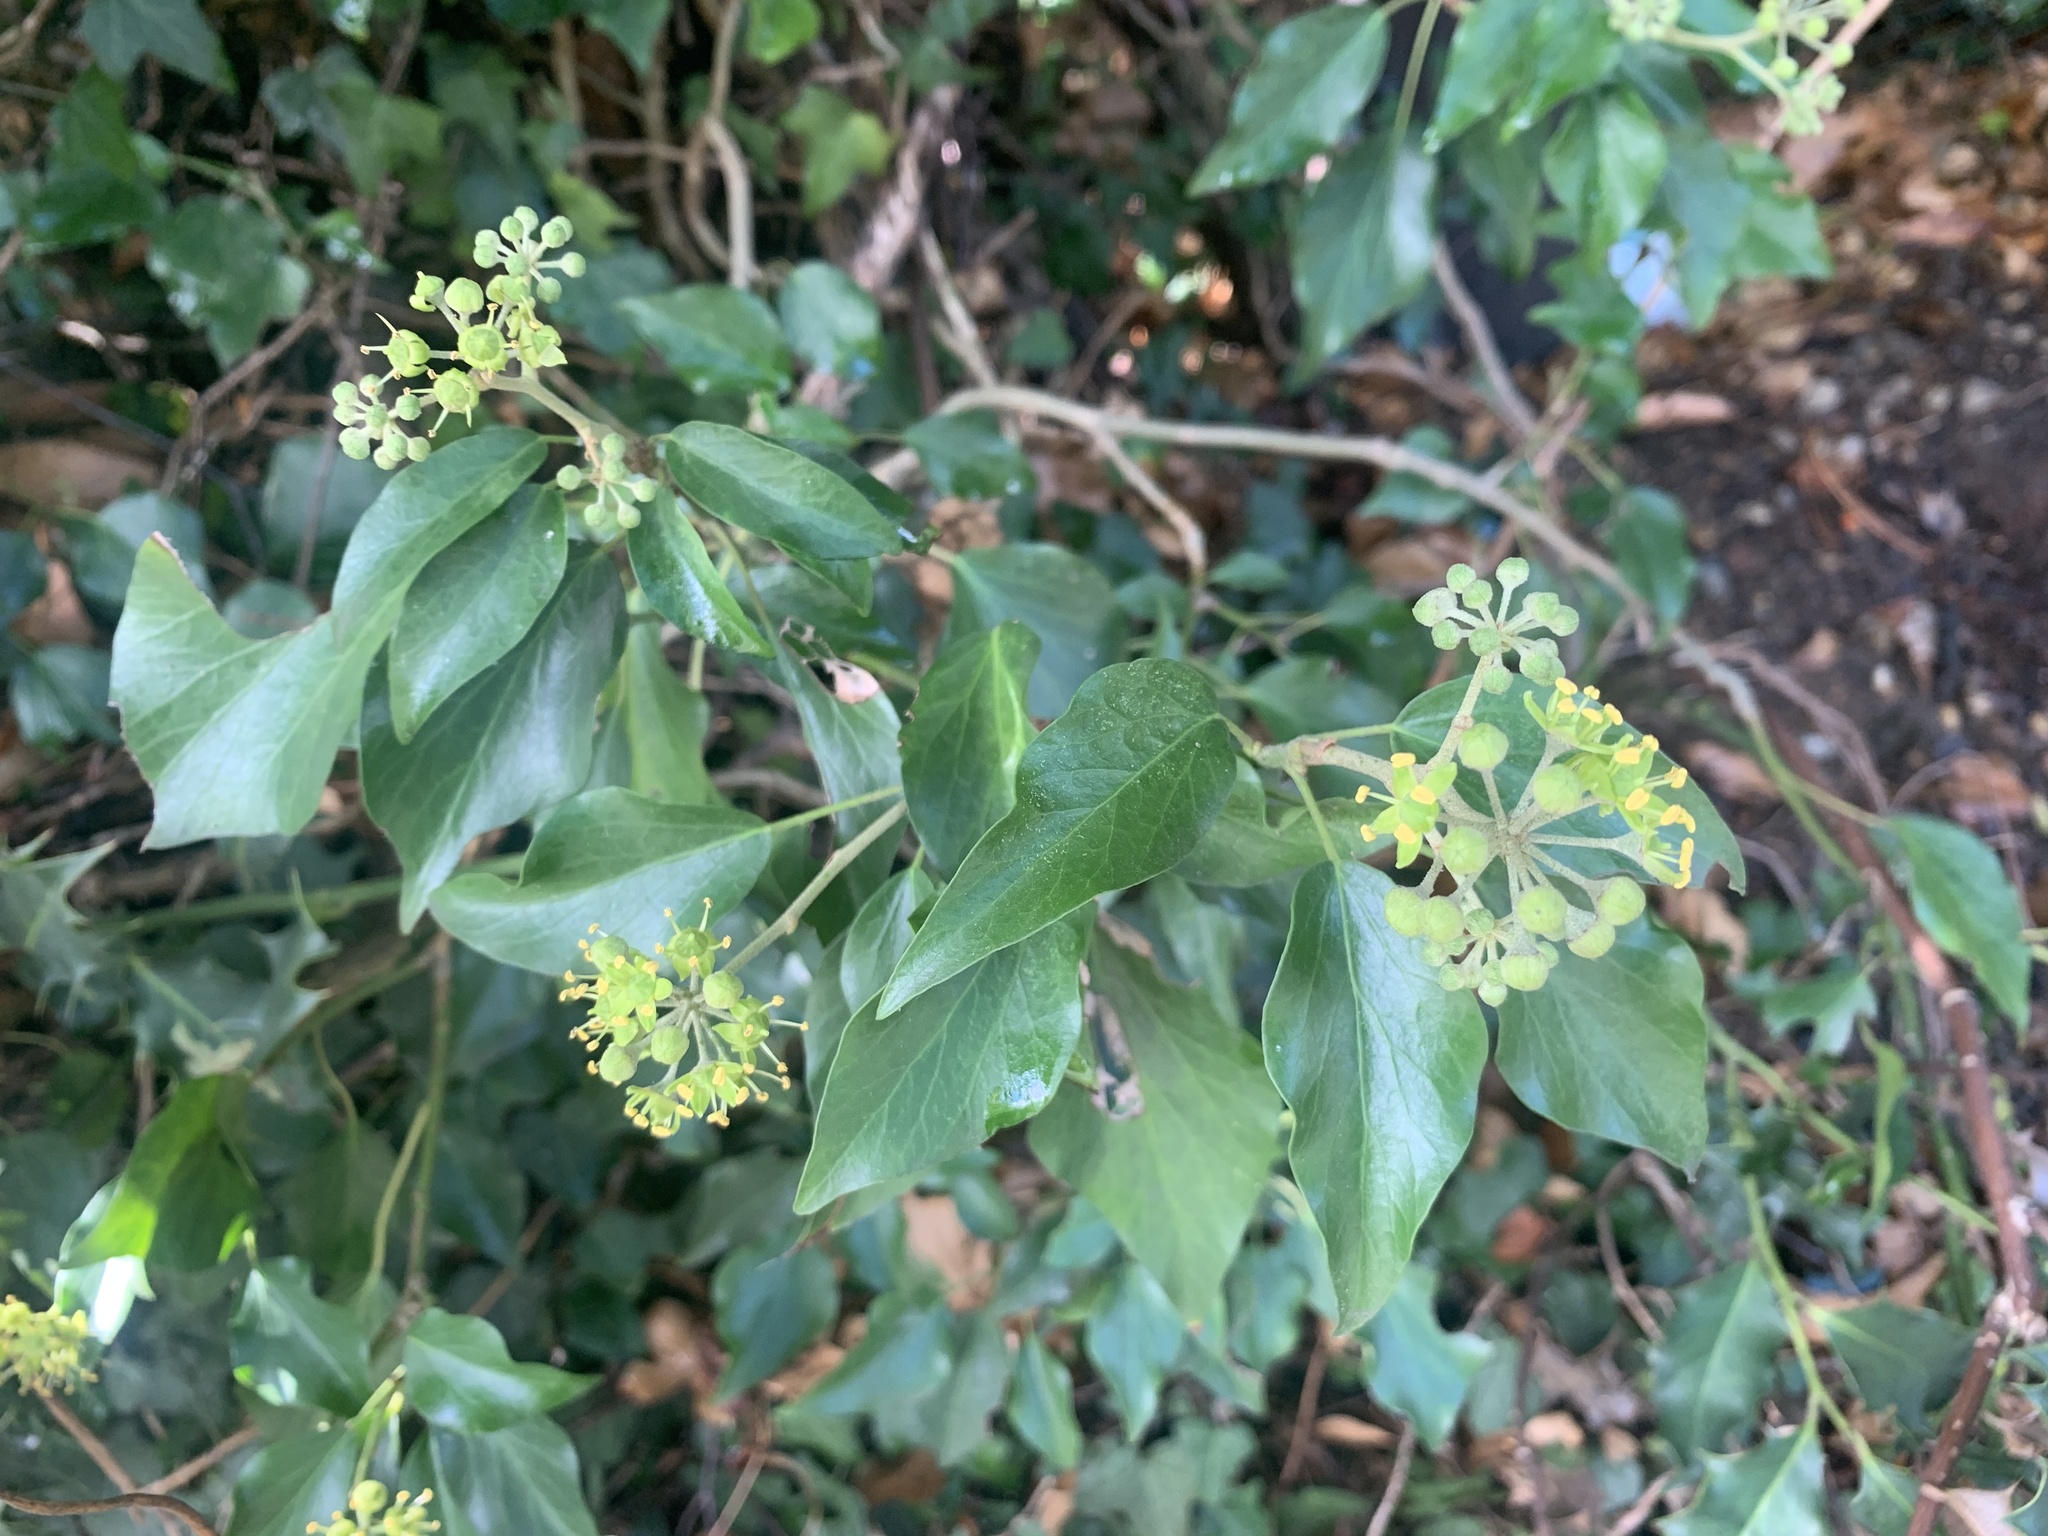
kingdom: Plantae
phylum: Tracheophyta
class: Magnoliopsida
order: Apiales
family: Araliaceae
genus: Hedera
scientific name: Hedera helix
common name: Ivy
